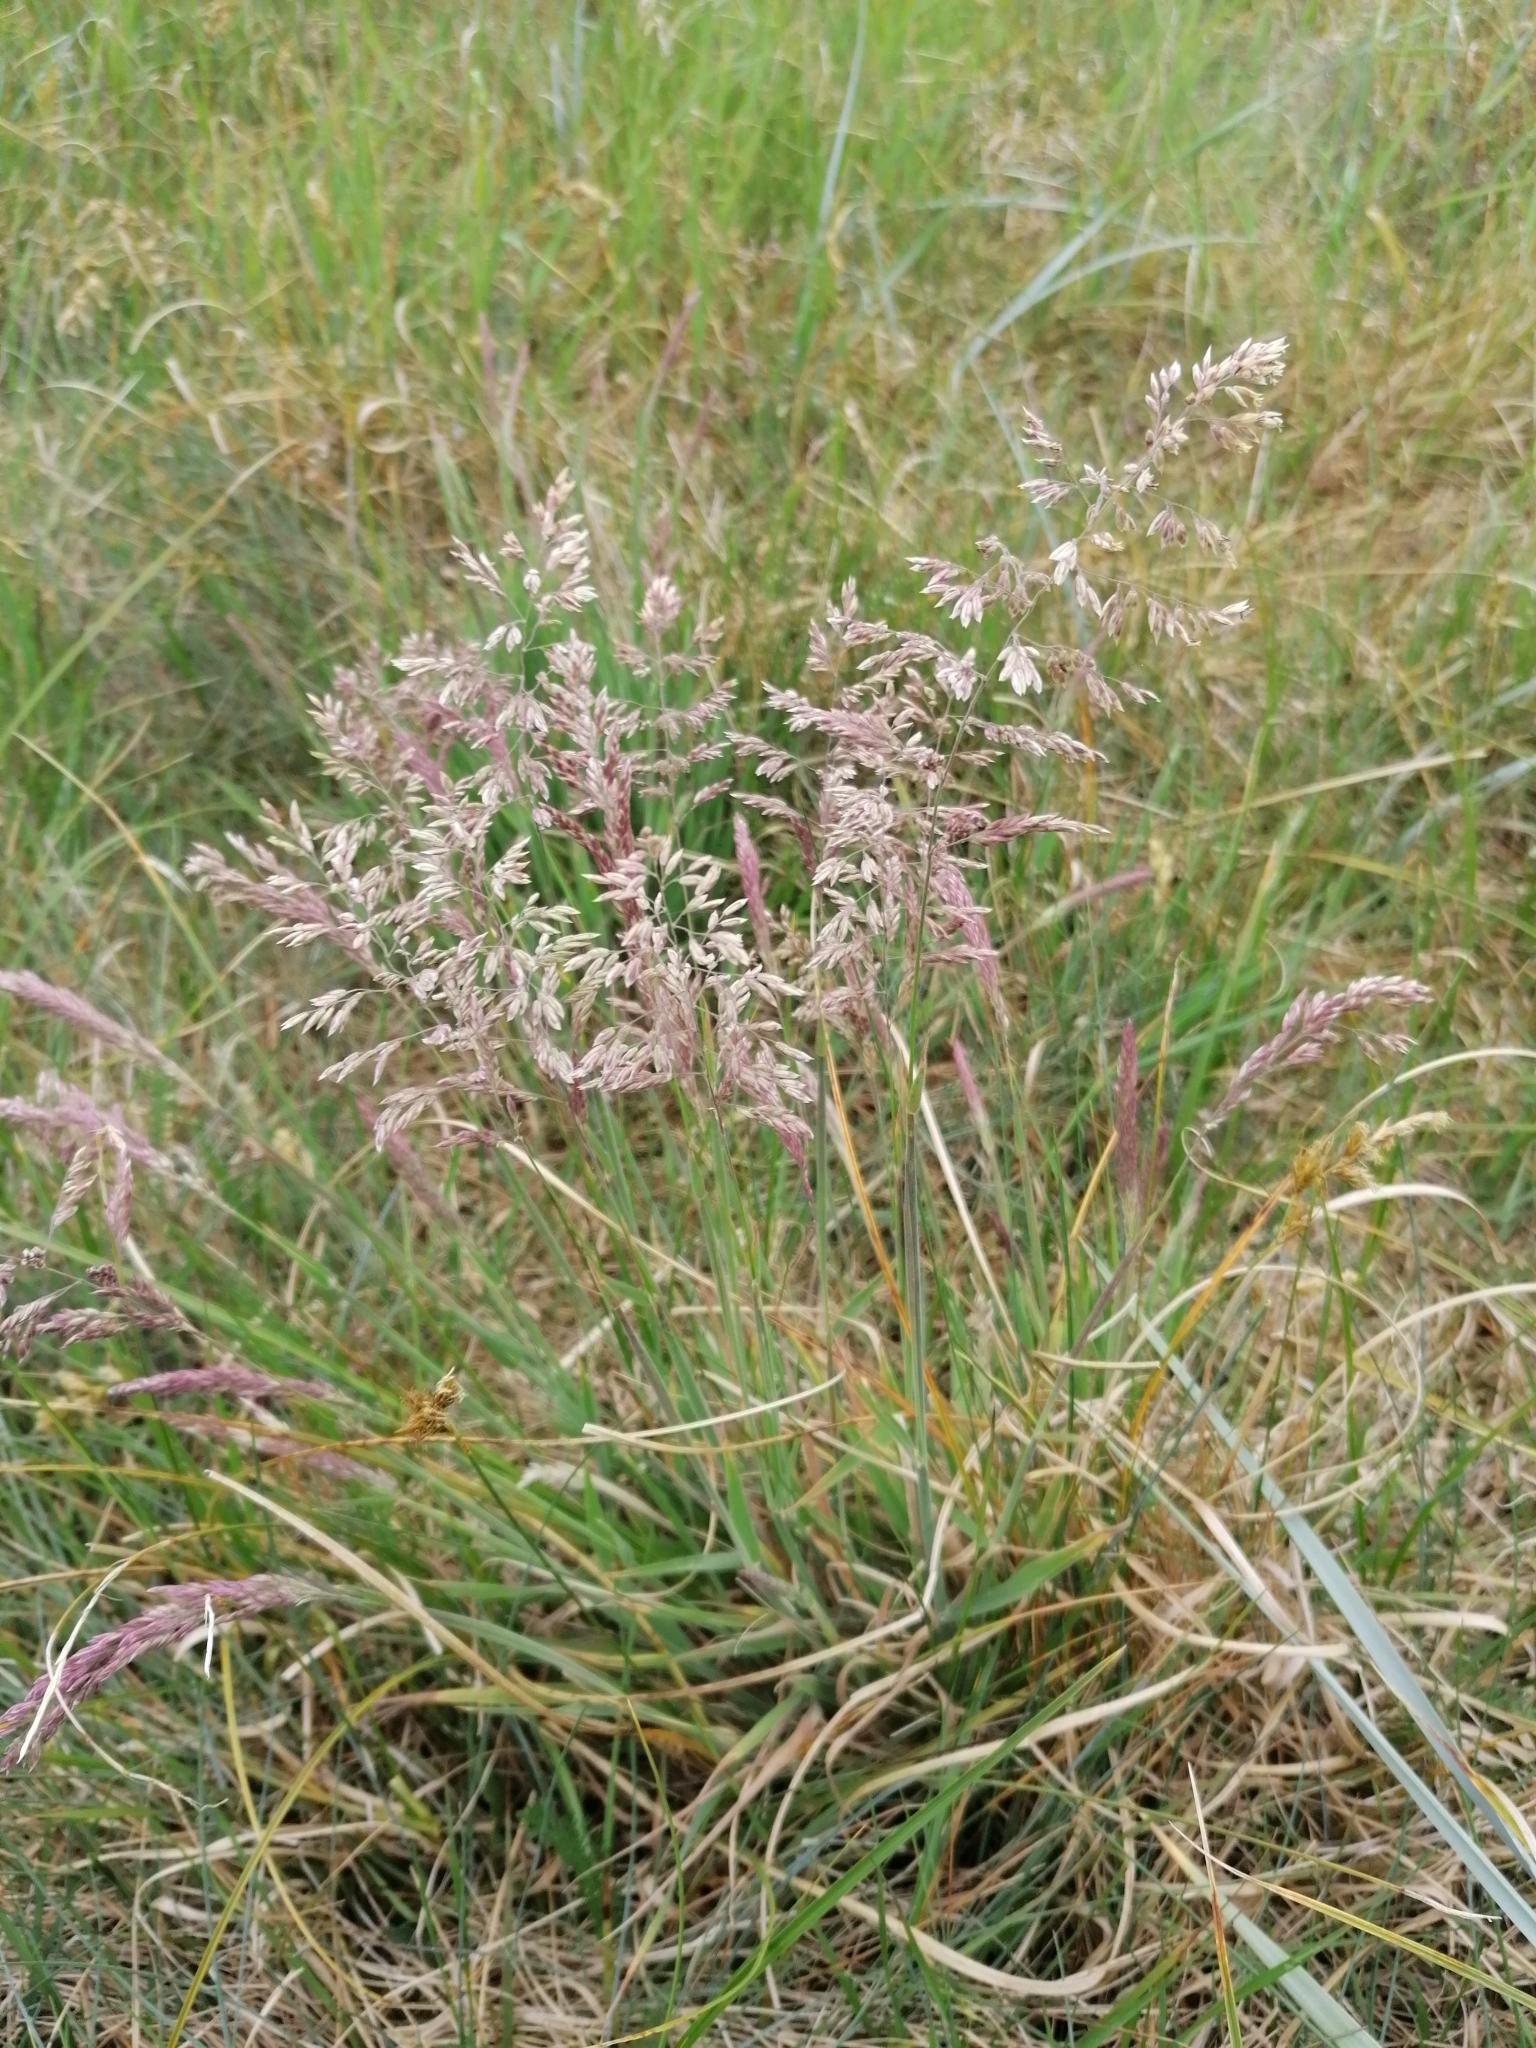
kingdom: Plantae
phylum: Tracheophyta
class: Liliopsida
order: Poales
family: Poaceae
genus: Holcus
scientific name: Holcus lanatus
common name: Yorkshire-fog
